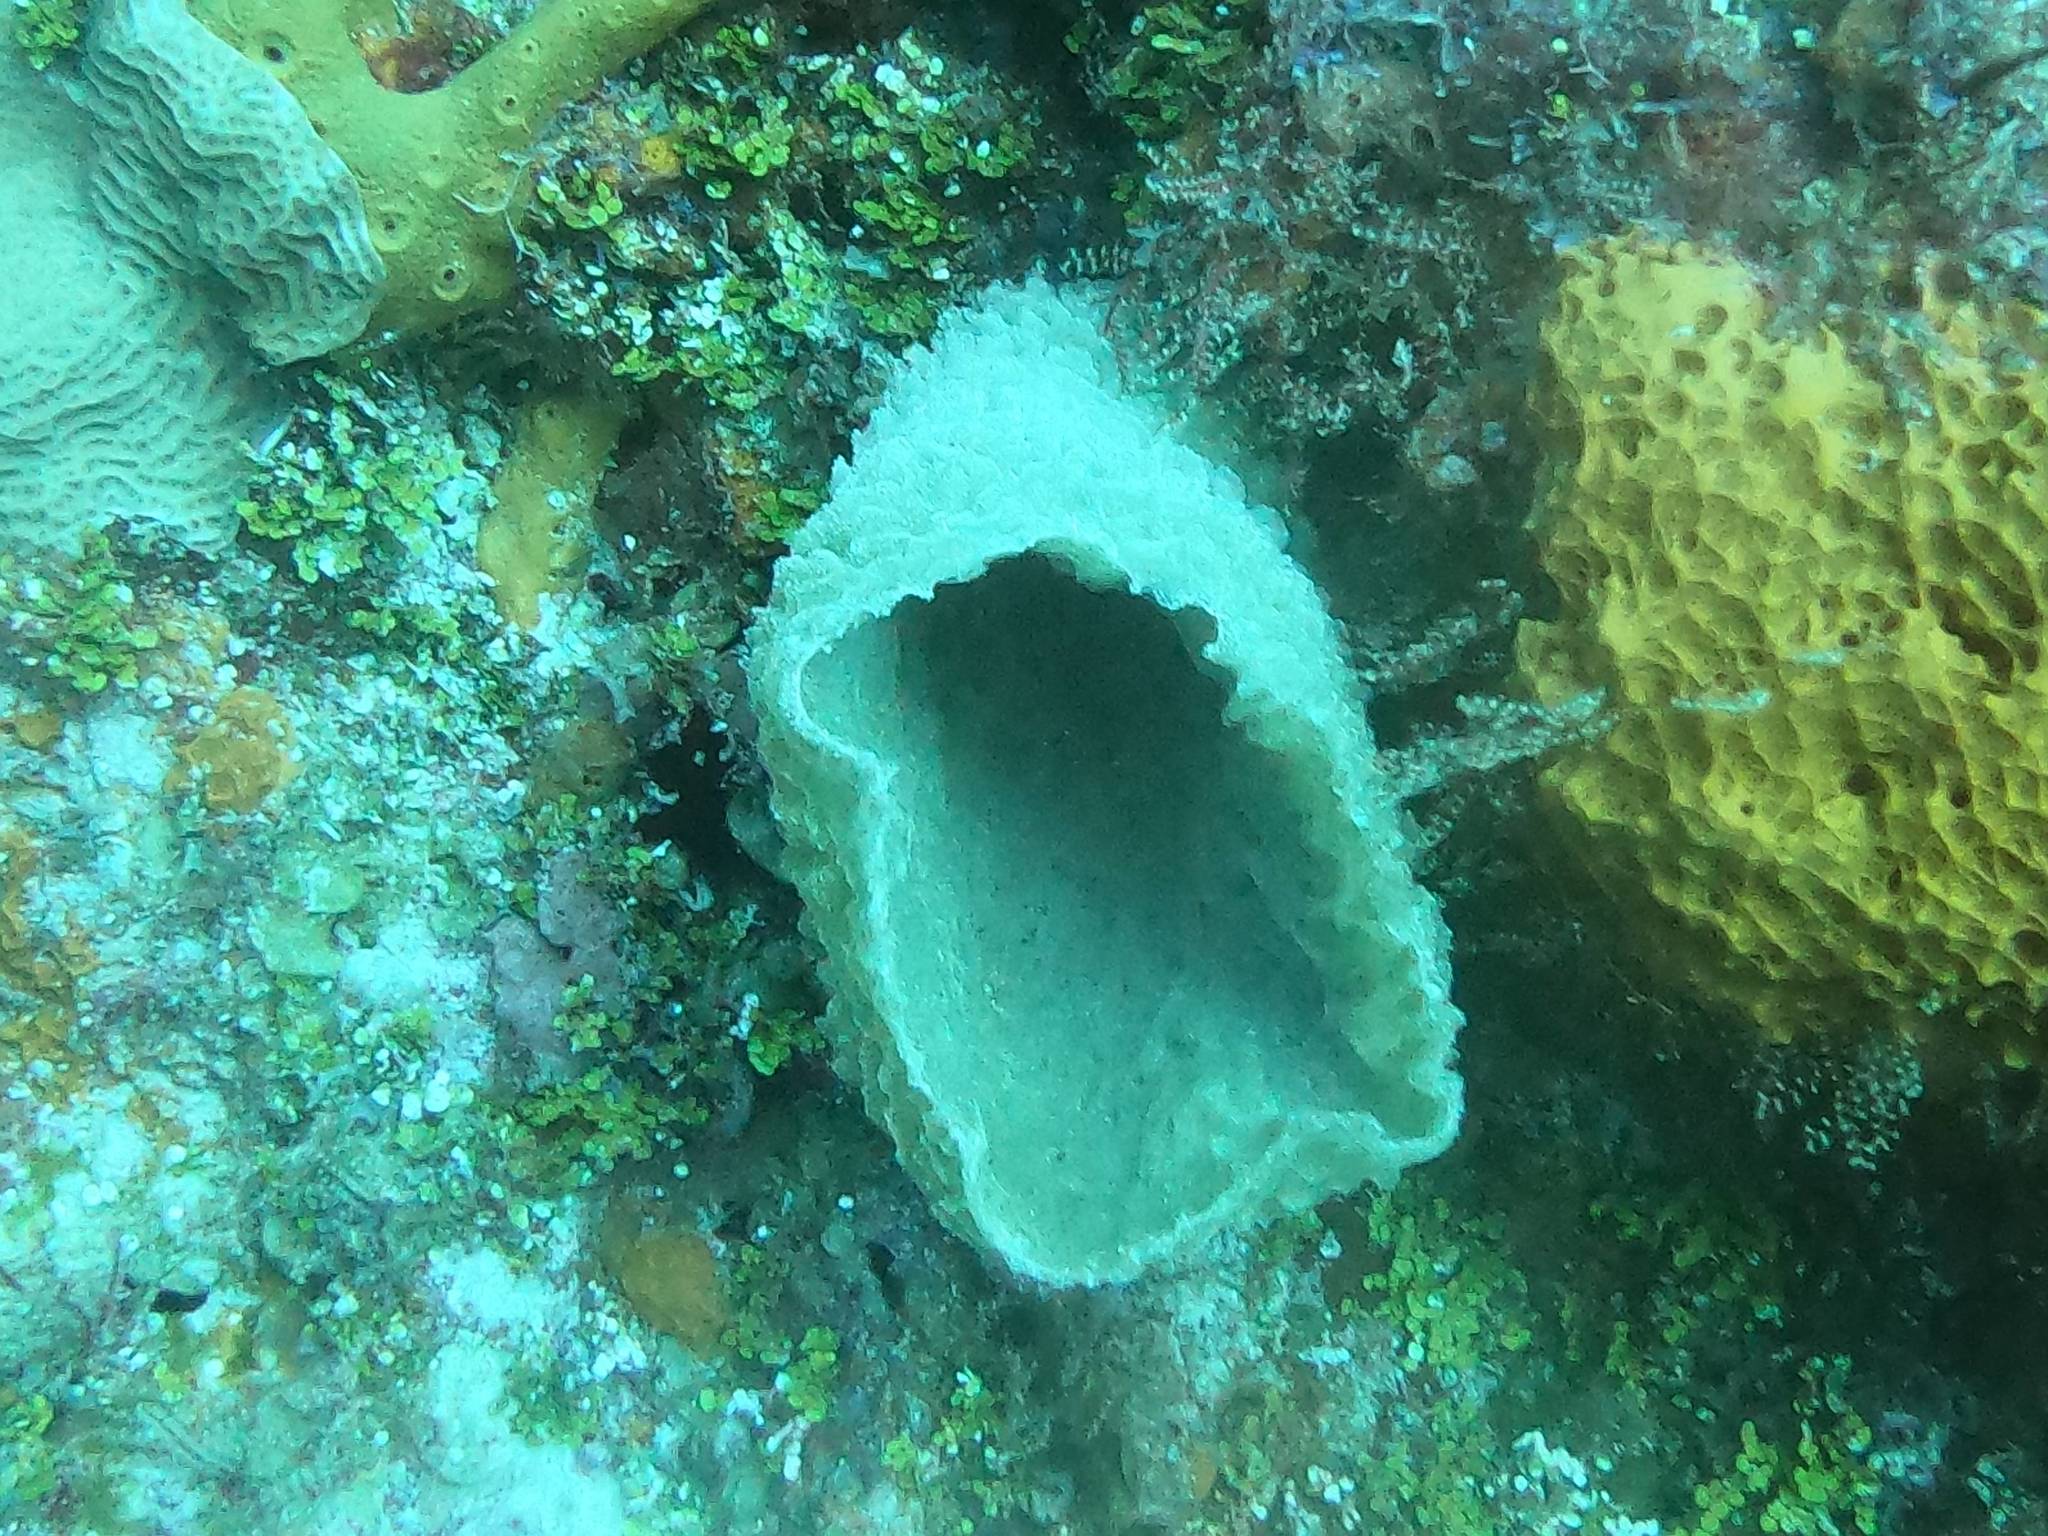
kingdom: Animalia
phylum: Porifera
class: Demospongiae
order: Haplosclerida
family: Callyspongiidae
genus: Callyspongia
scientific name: Callyspongia plicifera
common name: Azure vase sponge
